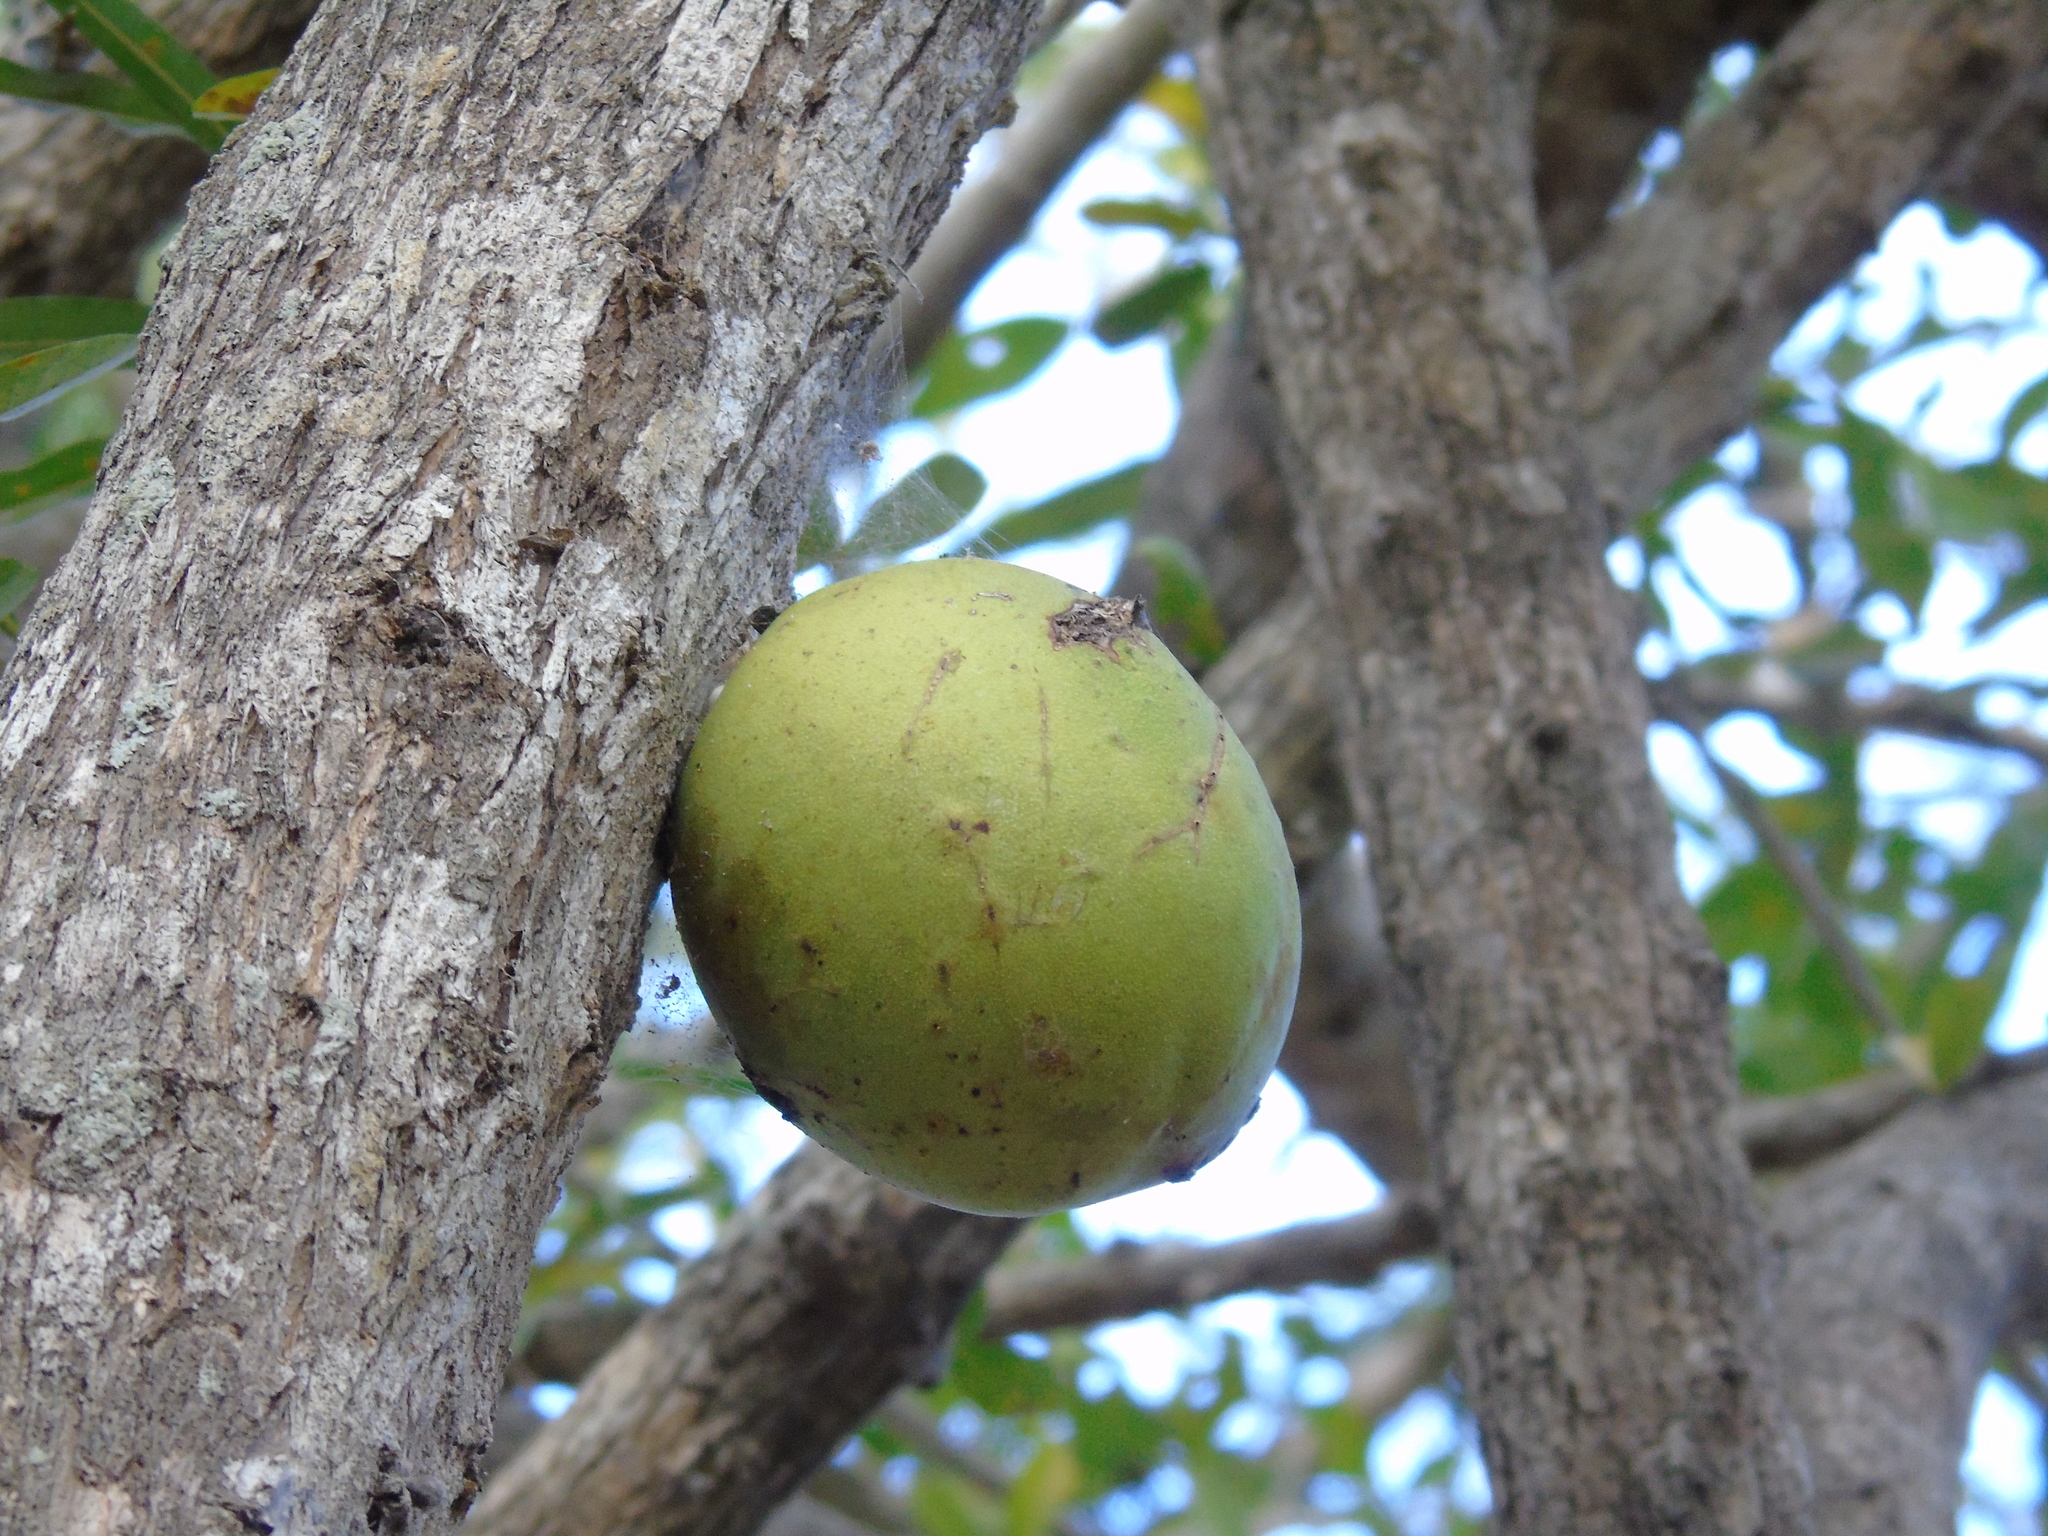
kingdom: Plantae
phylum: Tracheophyta
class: Magnoliopsida
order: Lamiales
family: Bignoniaceae
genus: Crescentia
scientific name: Crescentia alata
